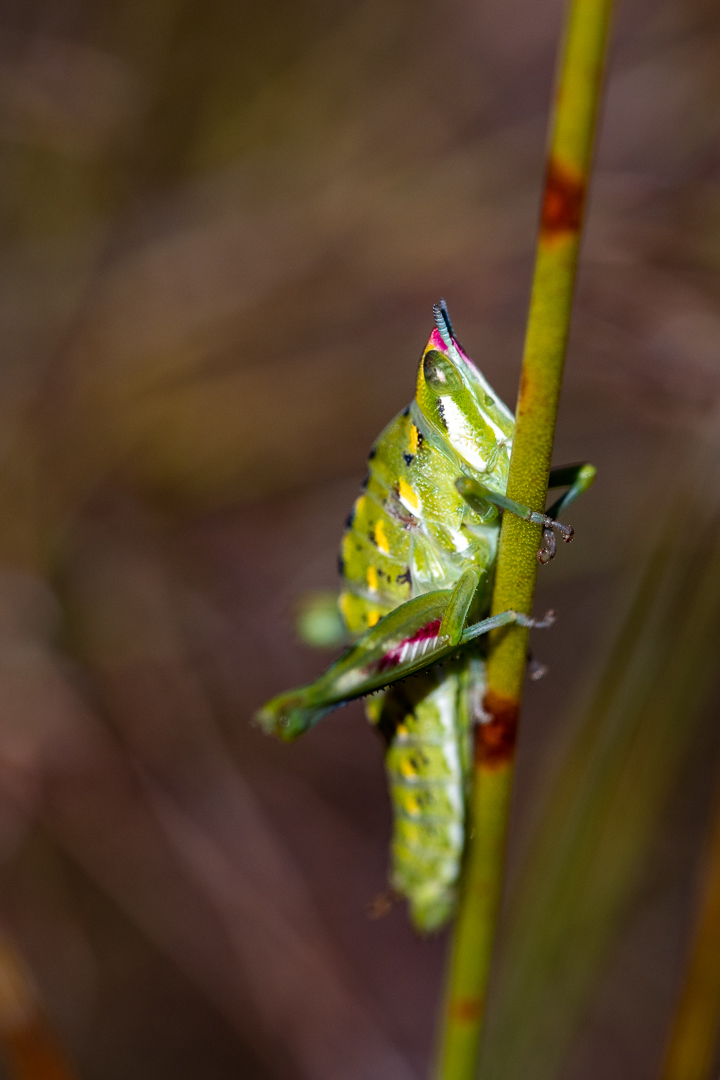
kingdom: Animalia
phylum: Arthropoda
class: Insecta
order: Orthoptera
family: Thericleidae
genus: Thericlesiella
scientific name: Thericlesiella meridionalis
